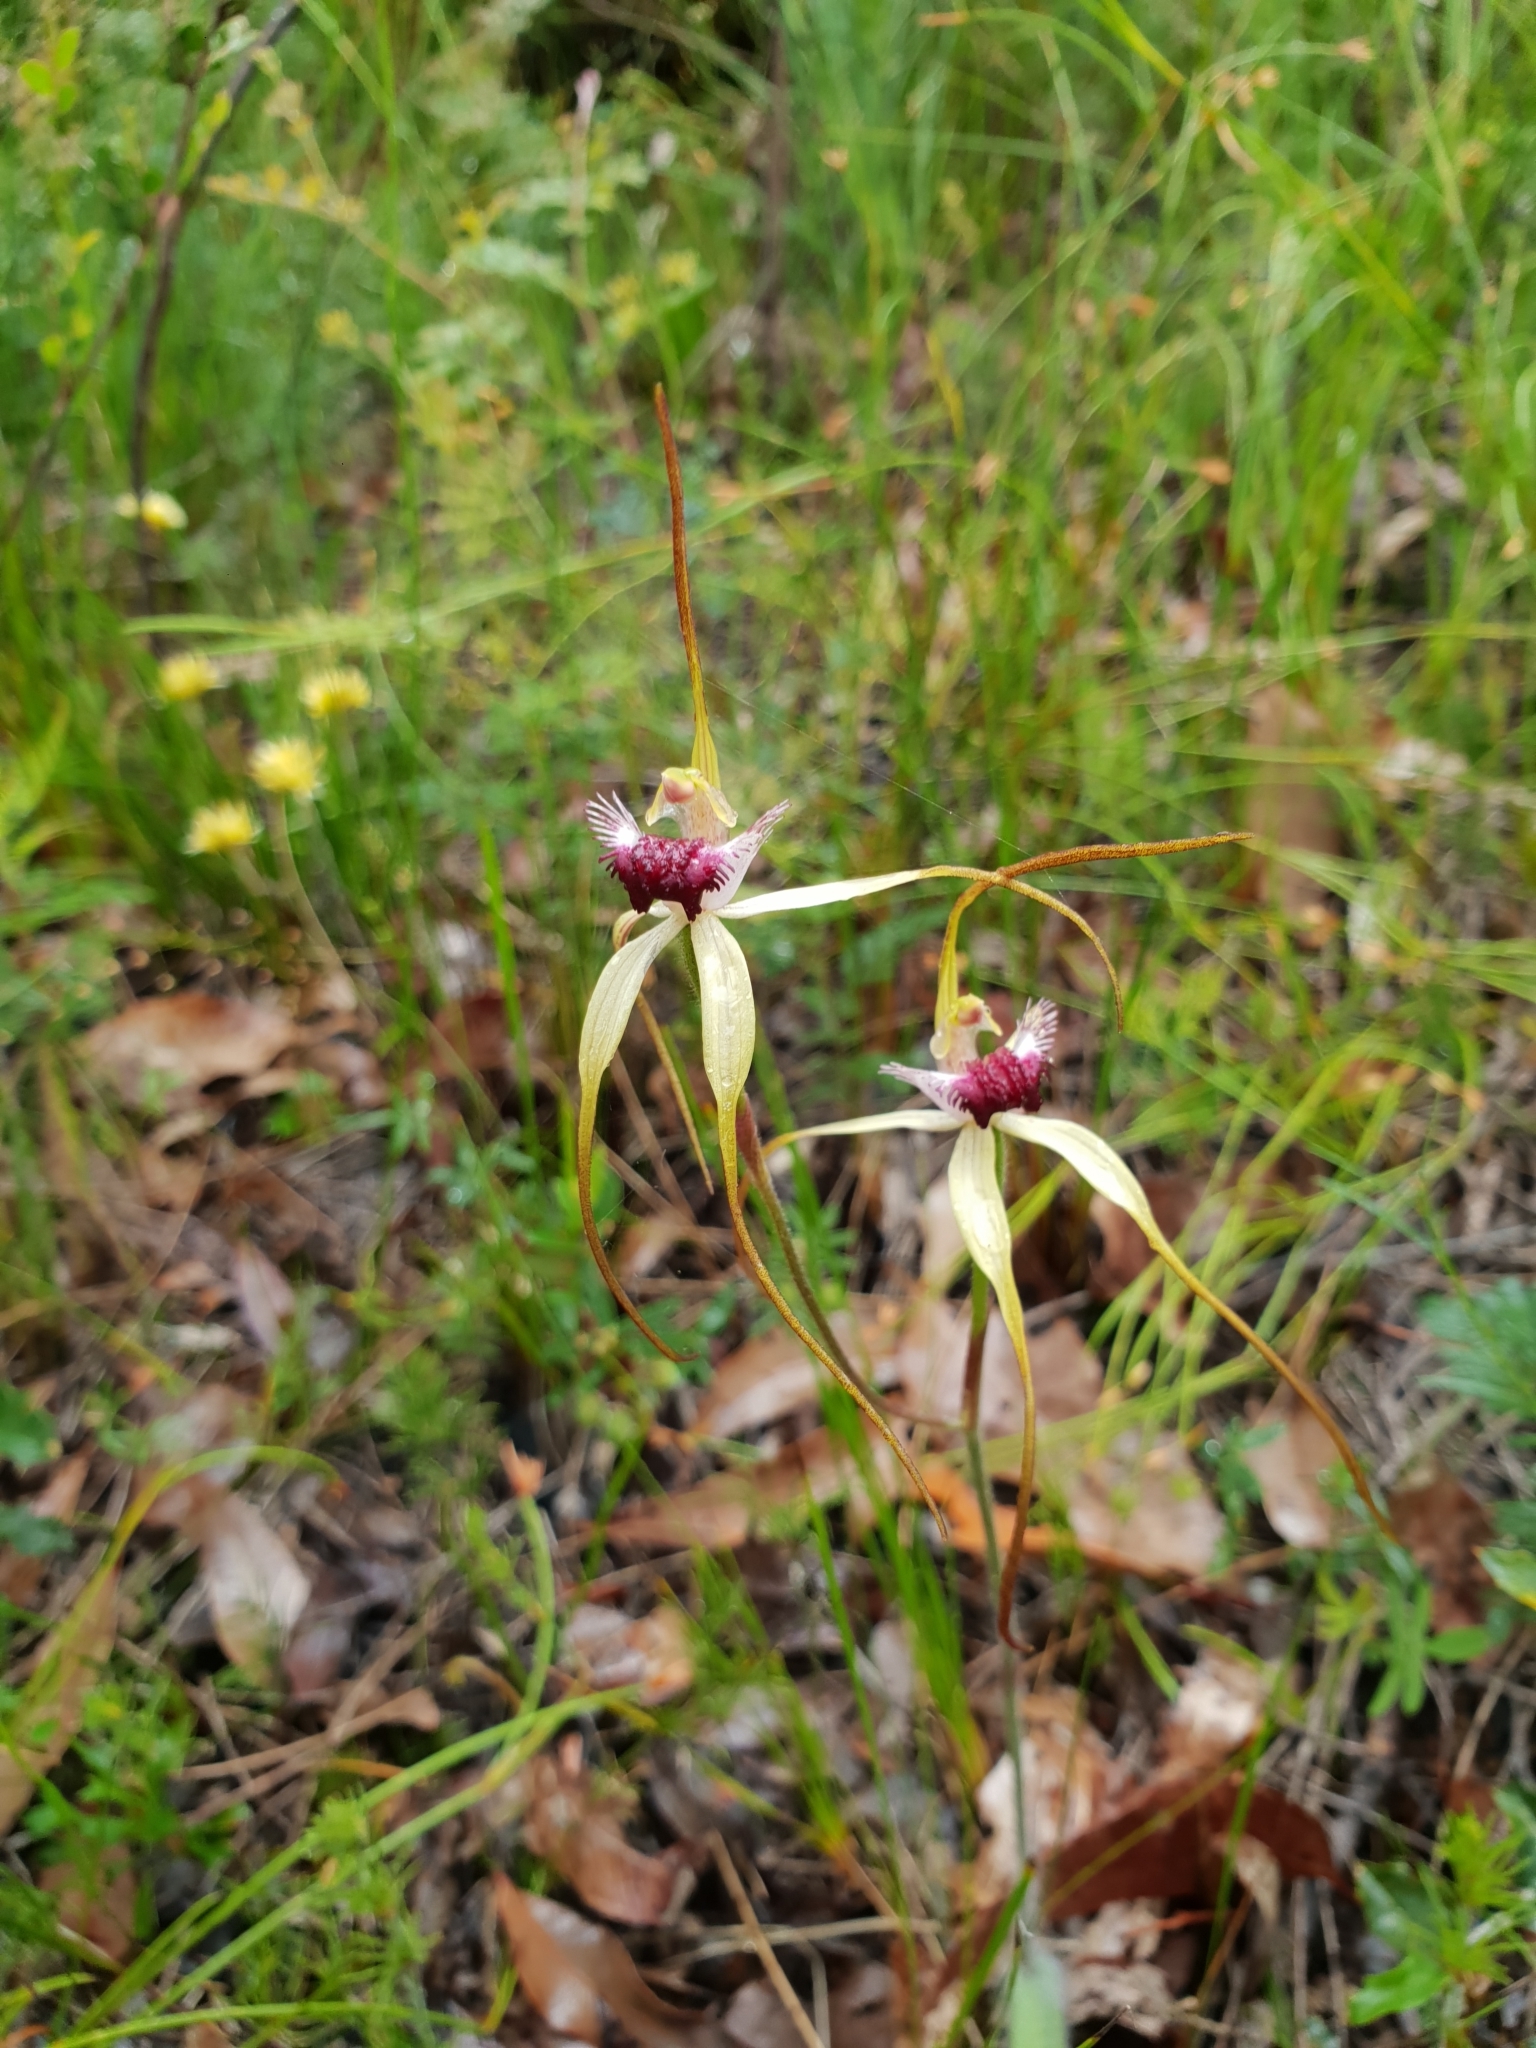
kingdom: Plantae
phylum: Tracheophyta
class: Liliopsida
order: Asparagales
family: Orchidaceae
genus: Caladenia
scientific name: Caladenia heberleana
